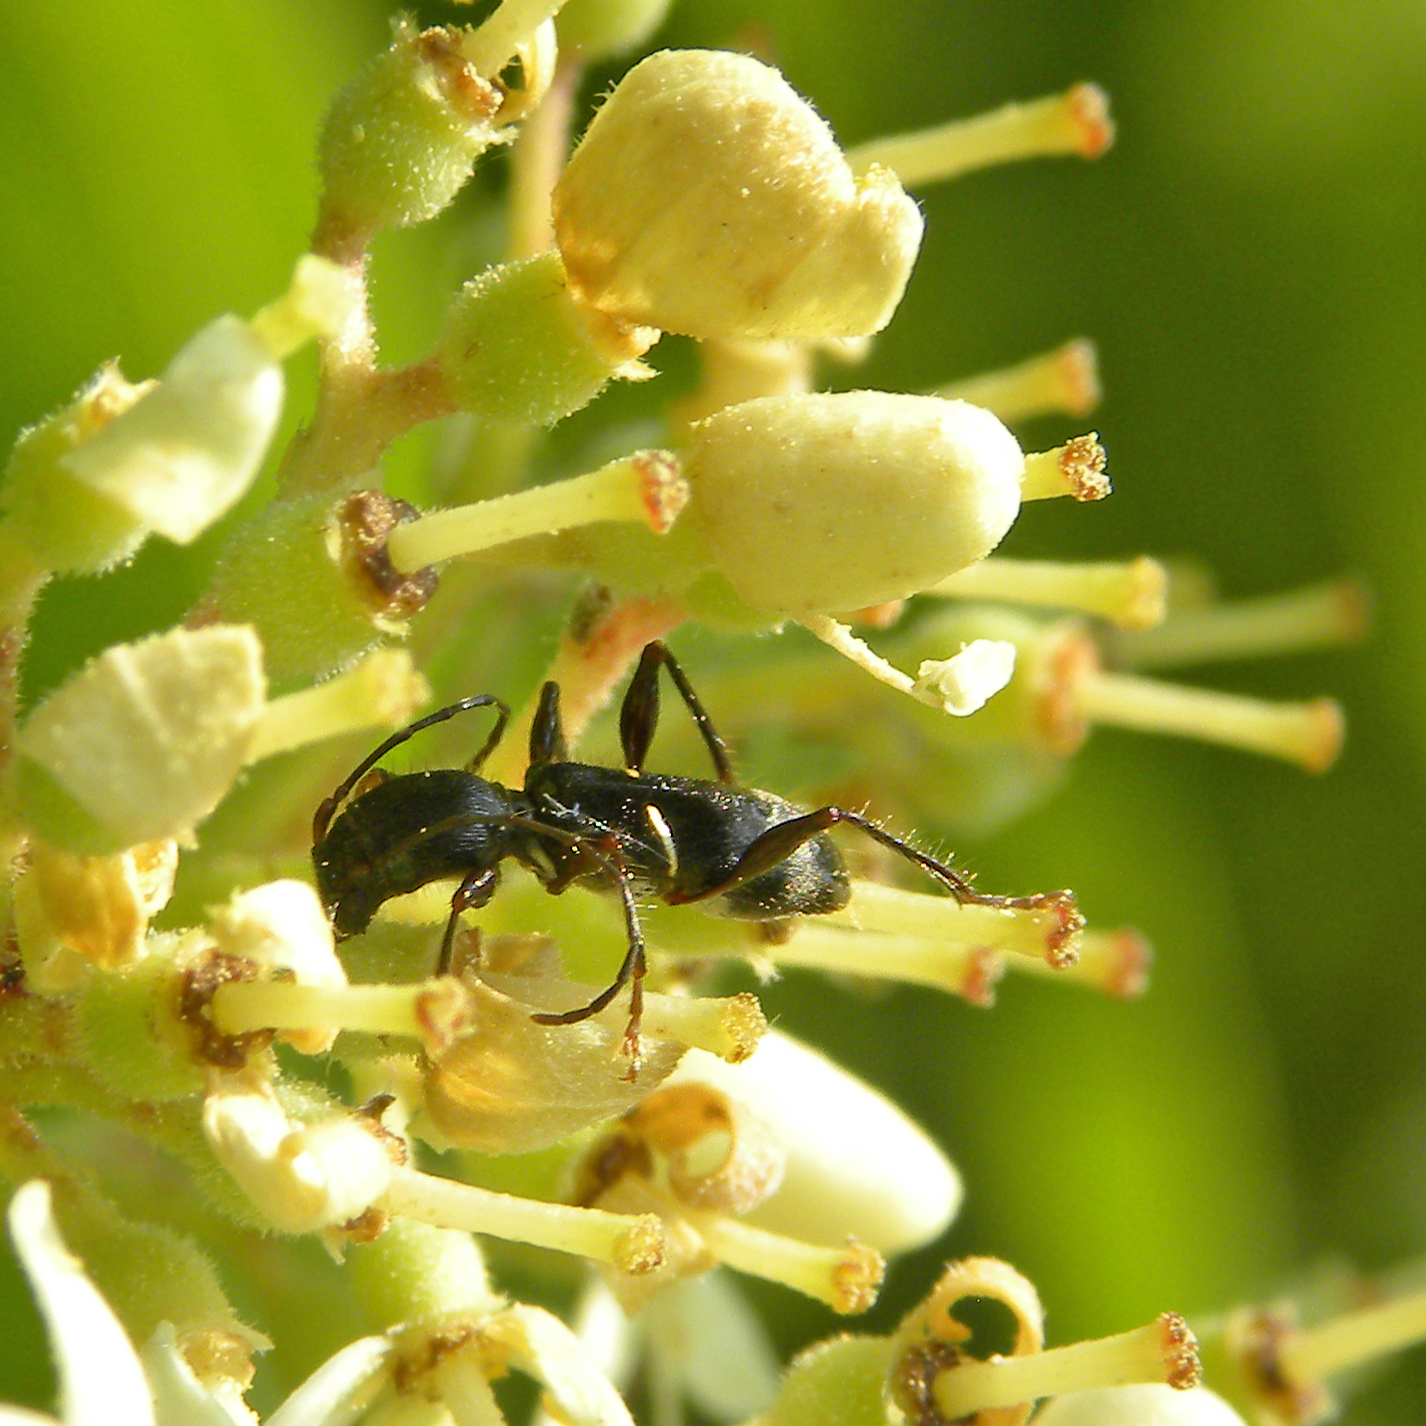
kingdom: Animalia
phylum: Arthropoda
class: Insecta
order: Coleoptera
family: Cerambycidae
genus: Euderces
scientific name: Euderces picipes
